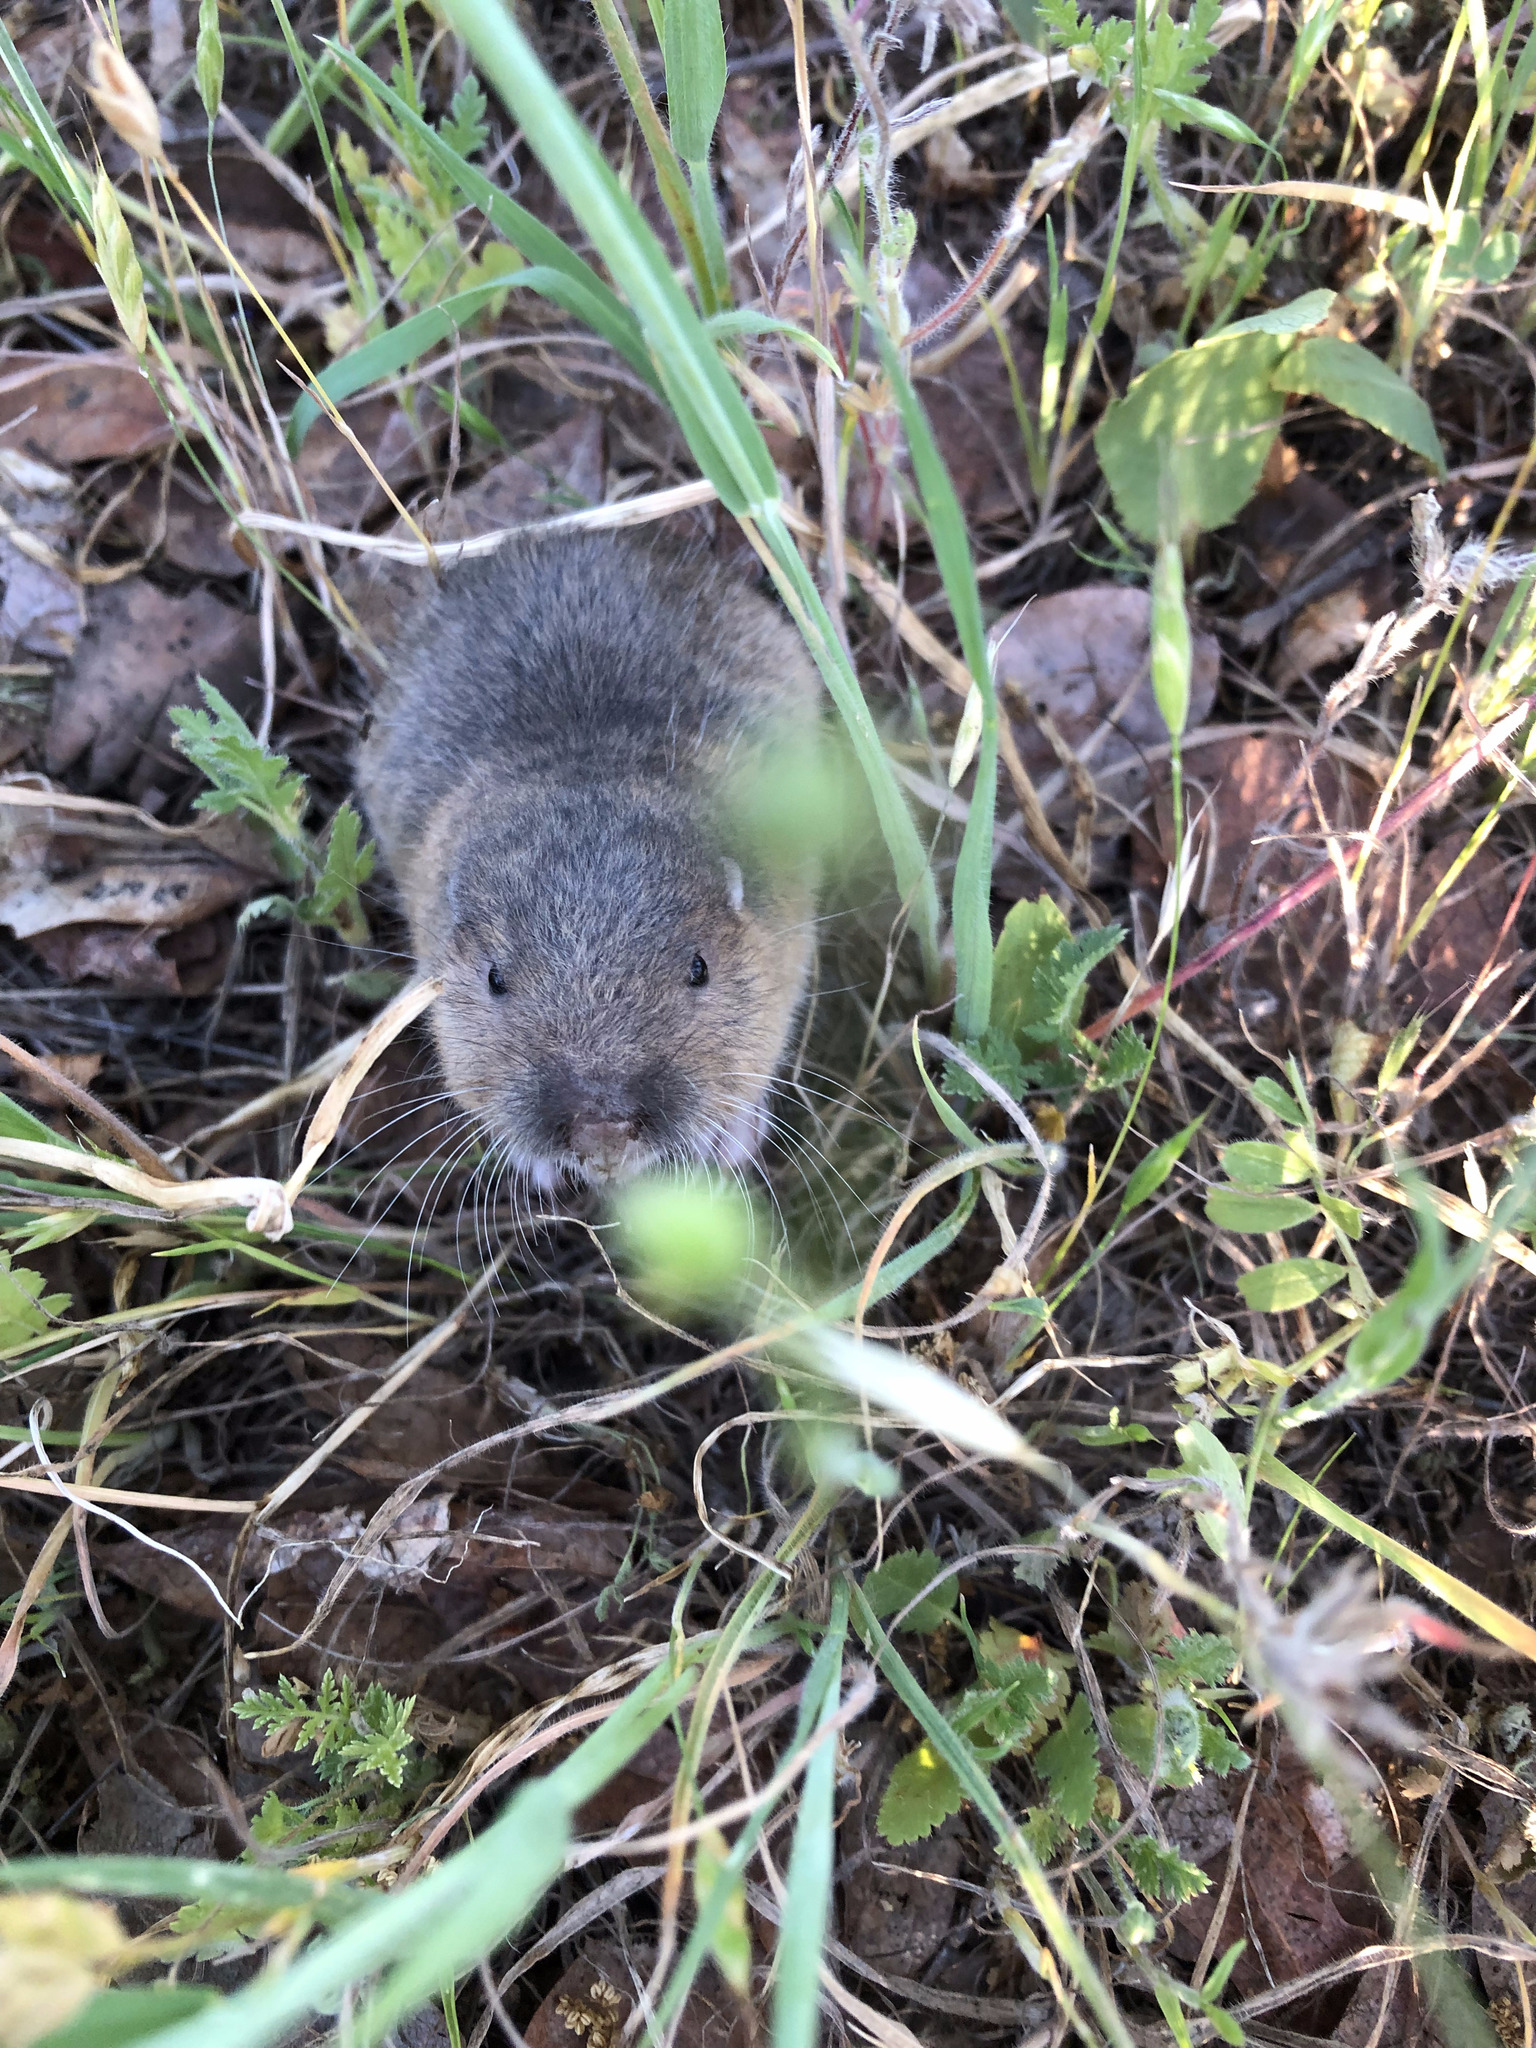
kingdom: Animalia
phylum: Chordata
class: Mammalia
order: Rodentia
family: Geomyidae
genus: Thomomys
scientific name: Thomomys bottae
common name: Botta's pocket gopher
